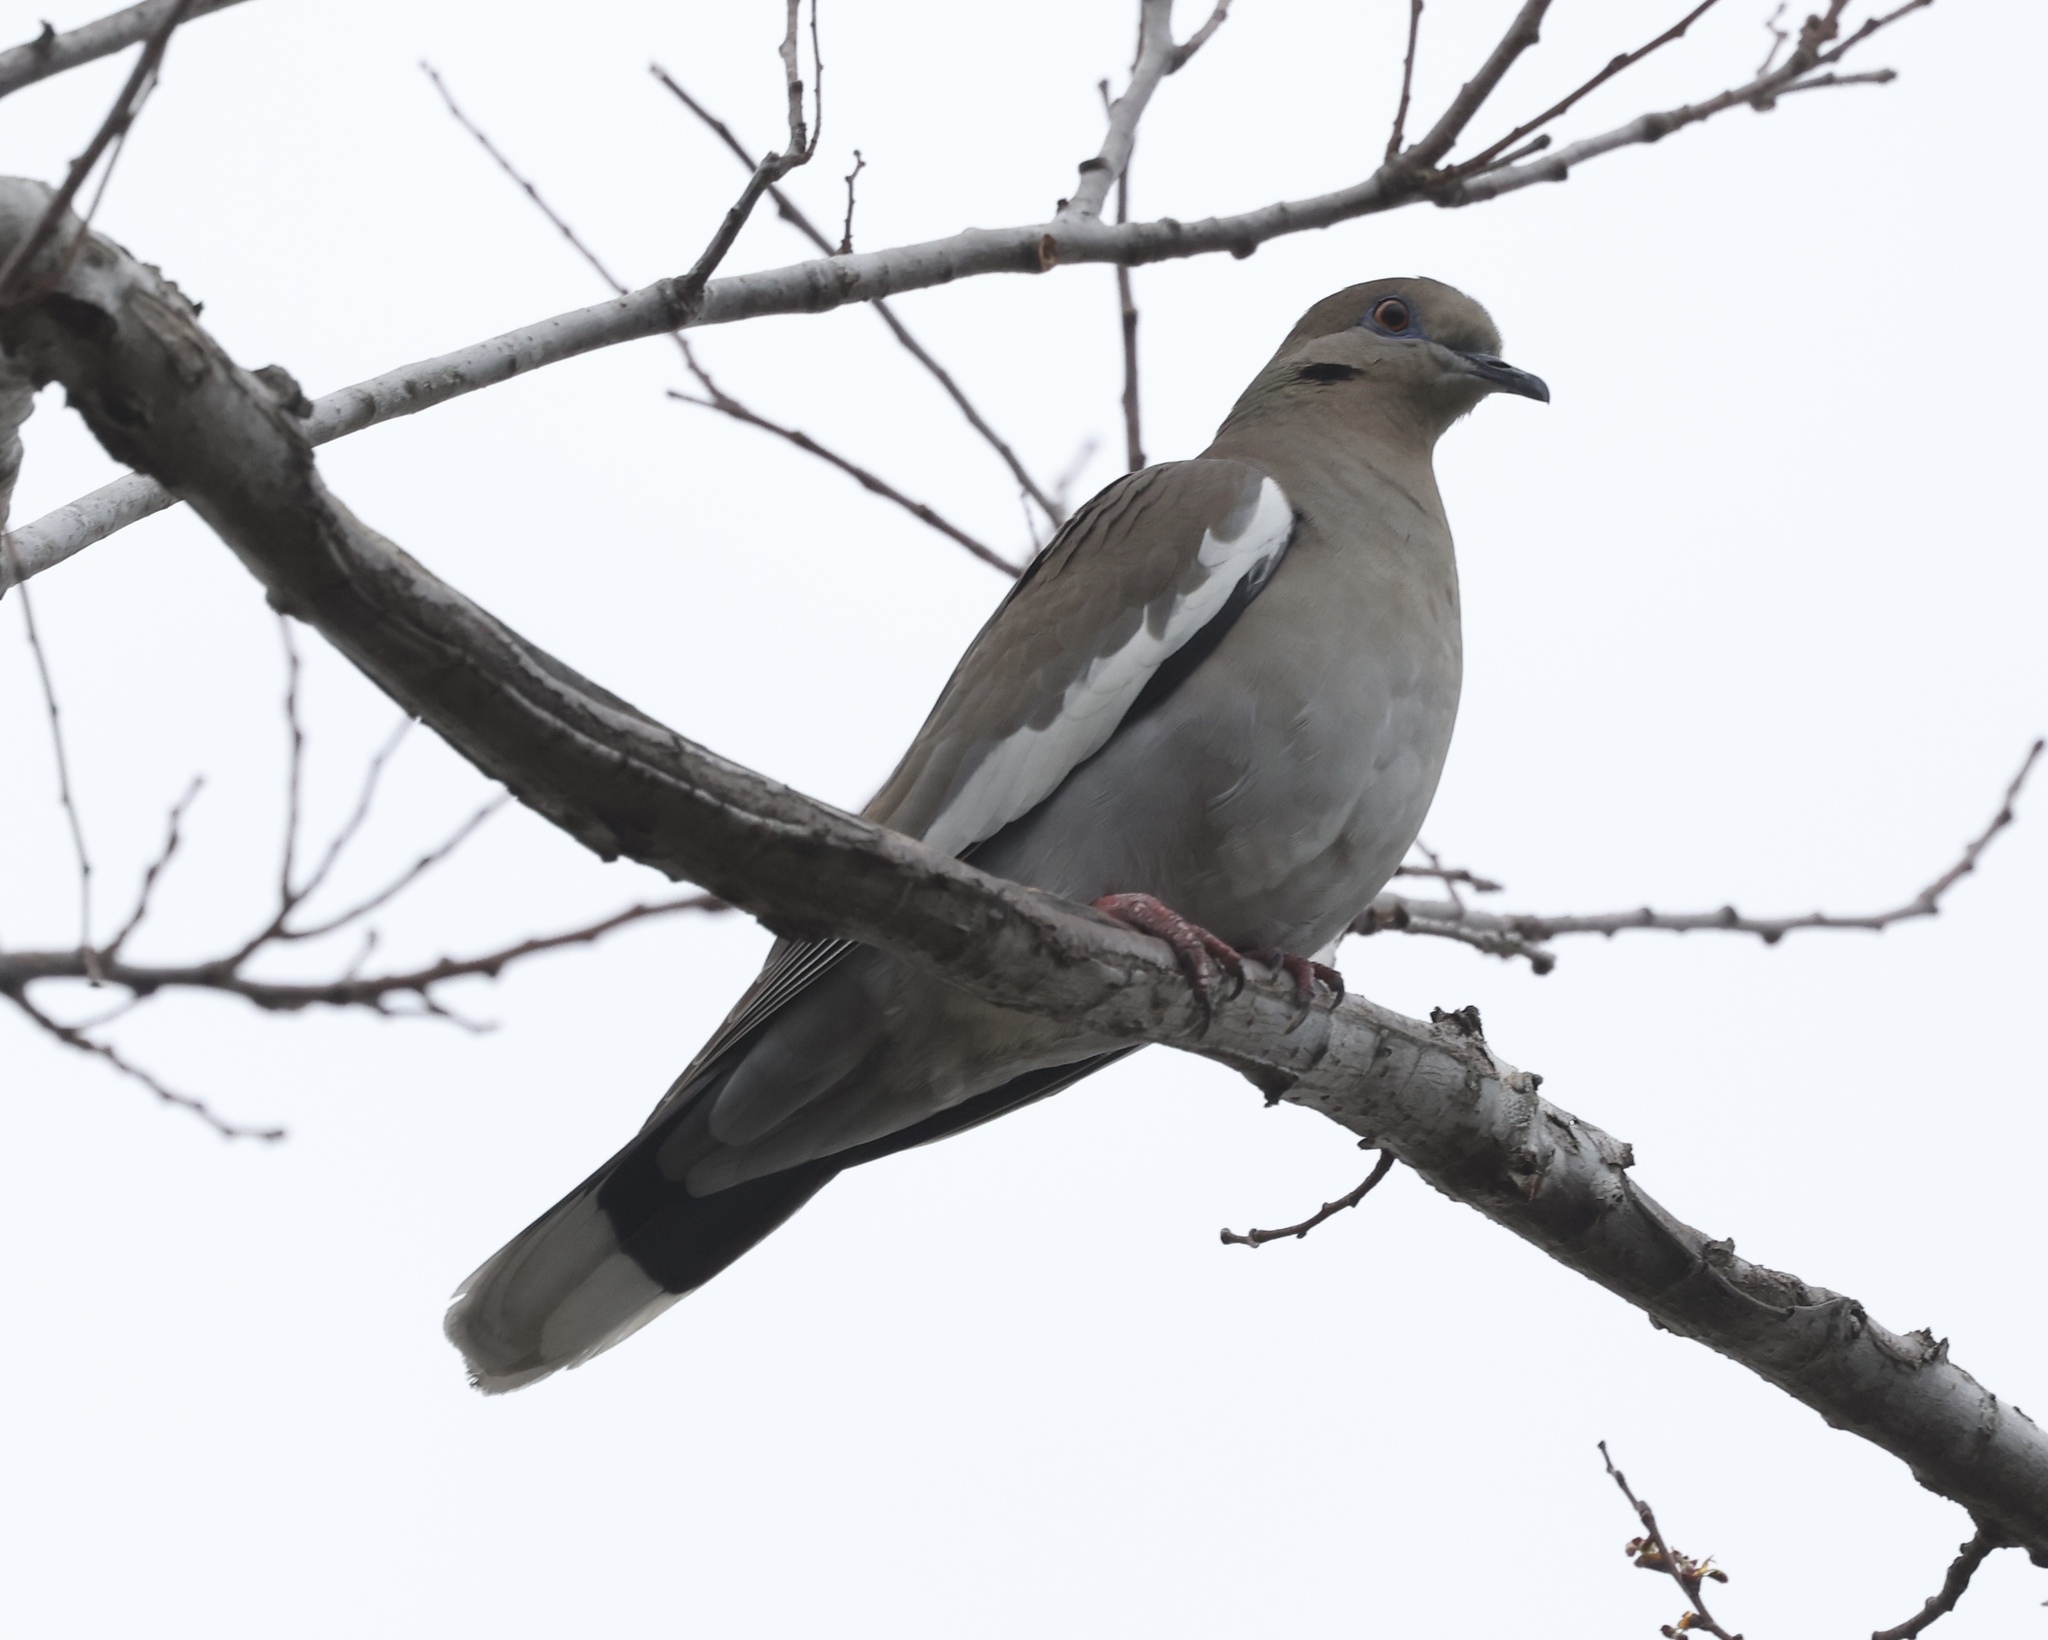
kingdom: Animalia
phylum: Chordata
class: Aves
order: Columbiformes
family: Columbidae
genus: Zenaida
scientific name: Zenaida asiatica
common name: White-winged dove
